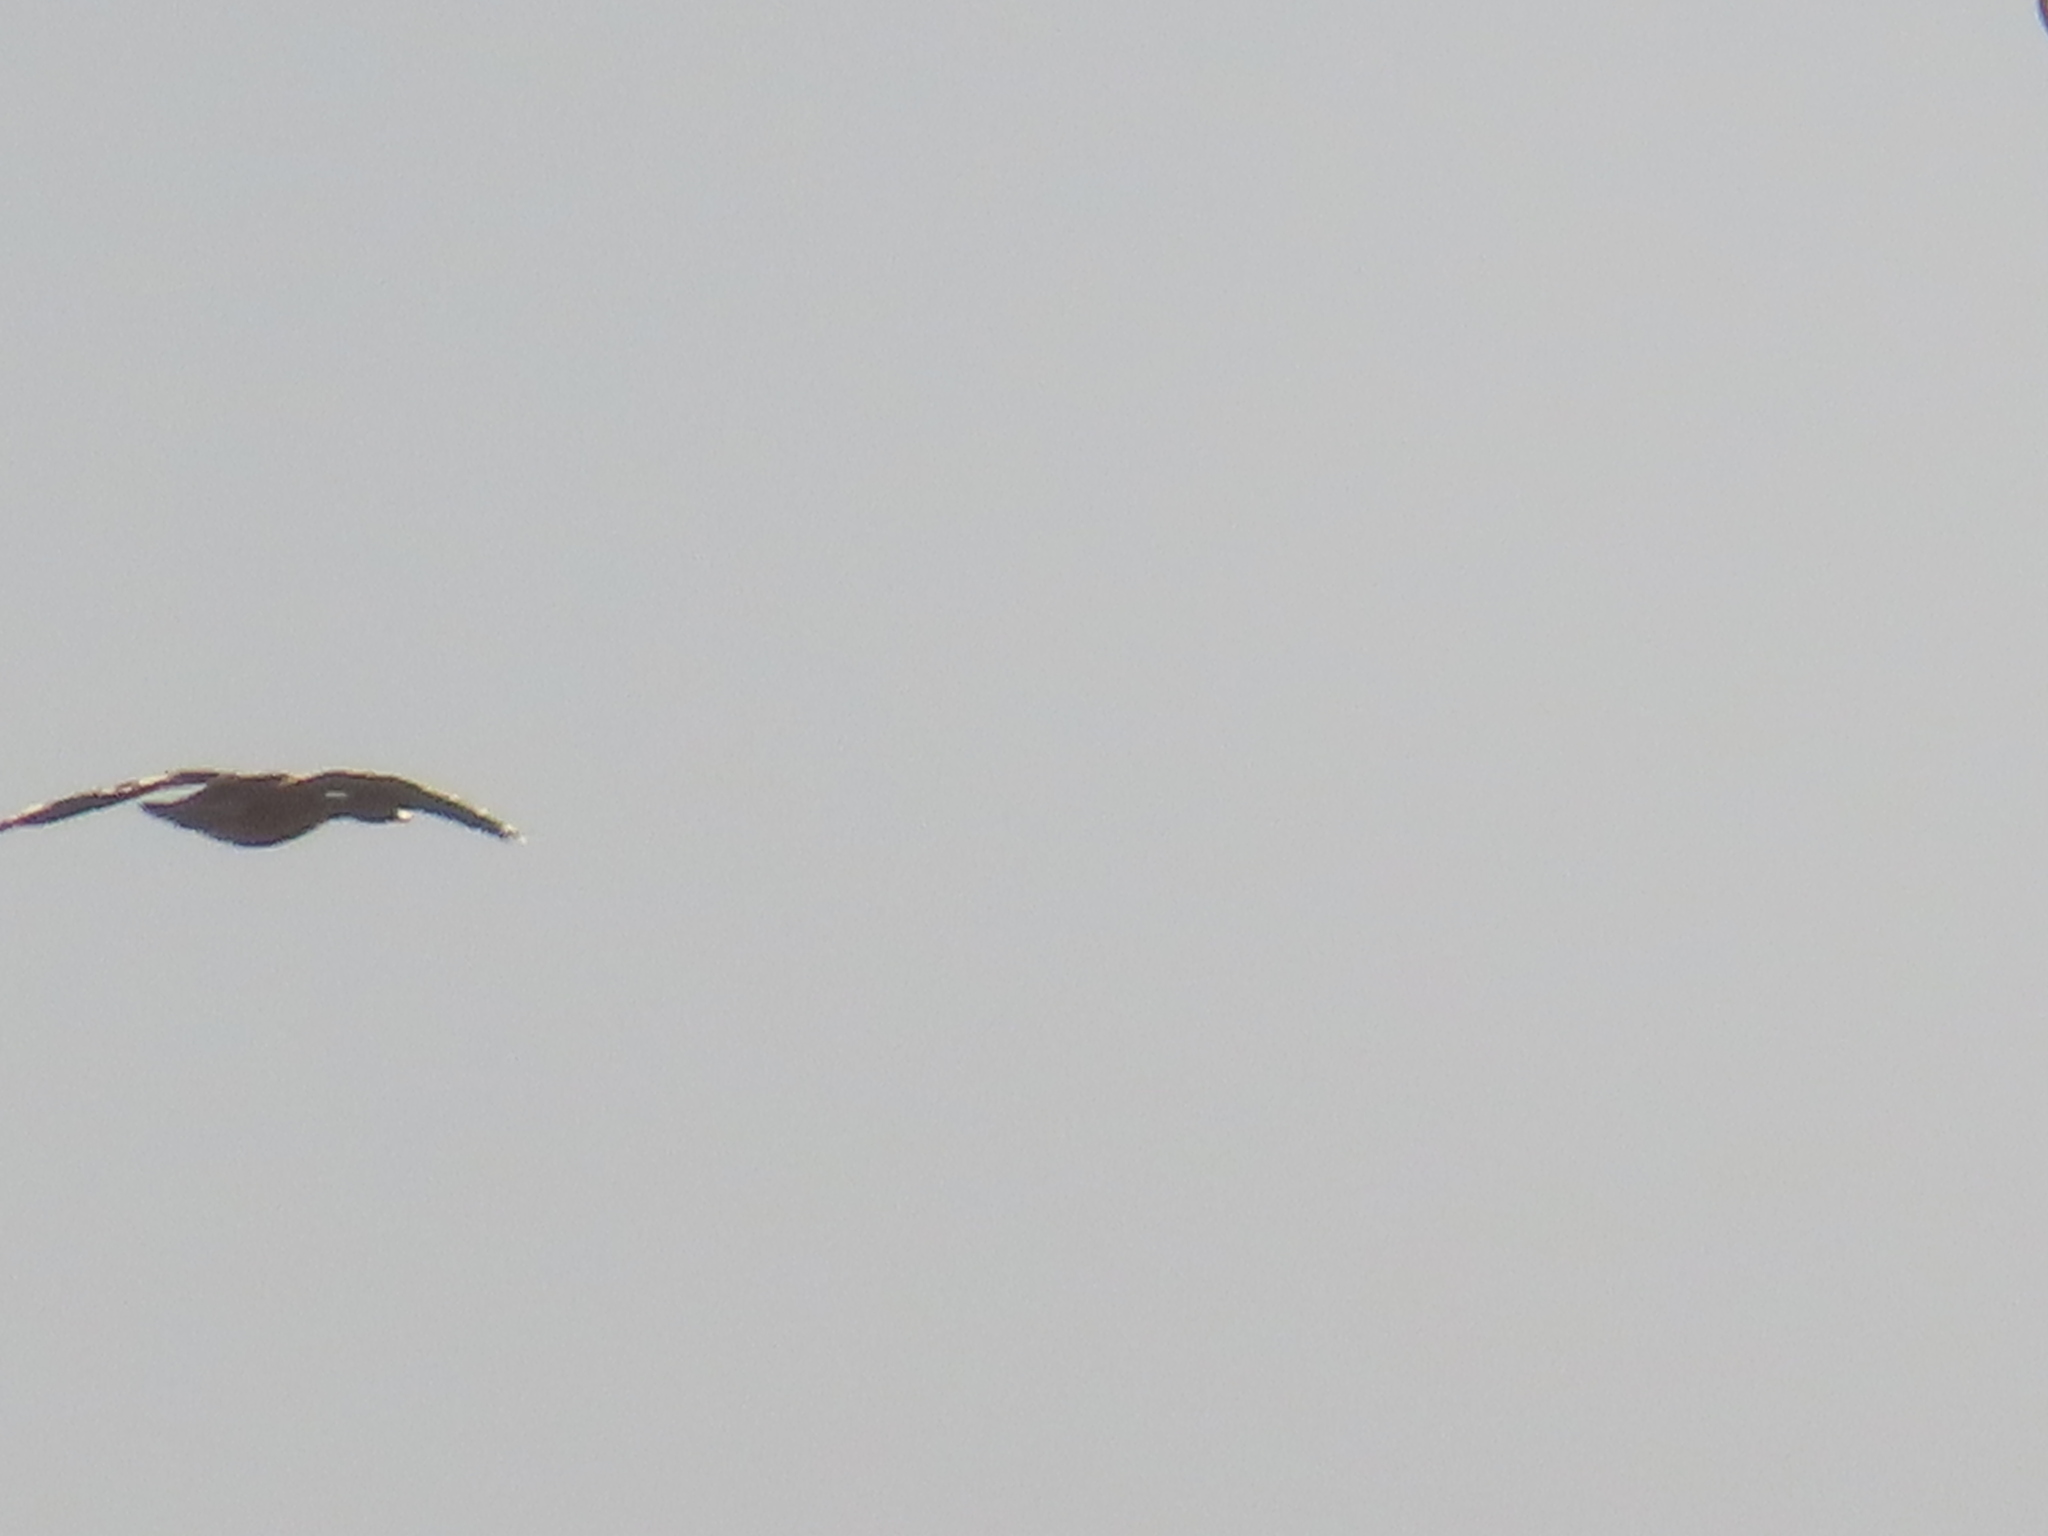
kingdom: Animalia
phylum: Chordata
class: Aves
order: Anseriformes
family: Anatidae
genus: Anser
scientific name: Anser caerulescens
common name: Snow goose
